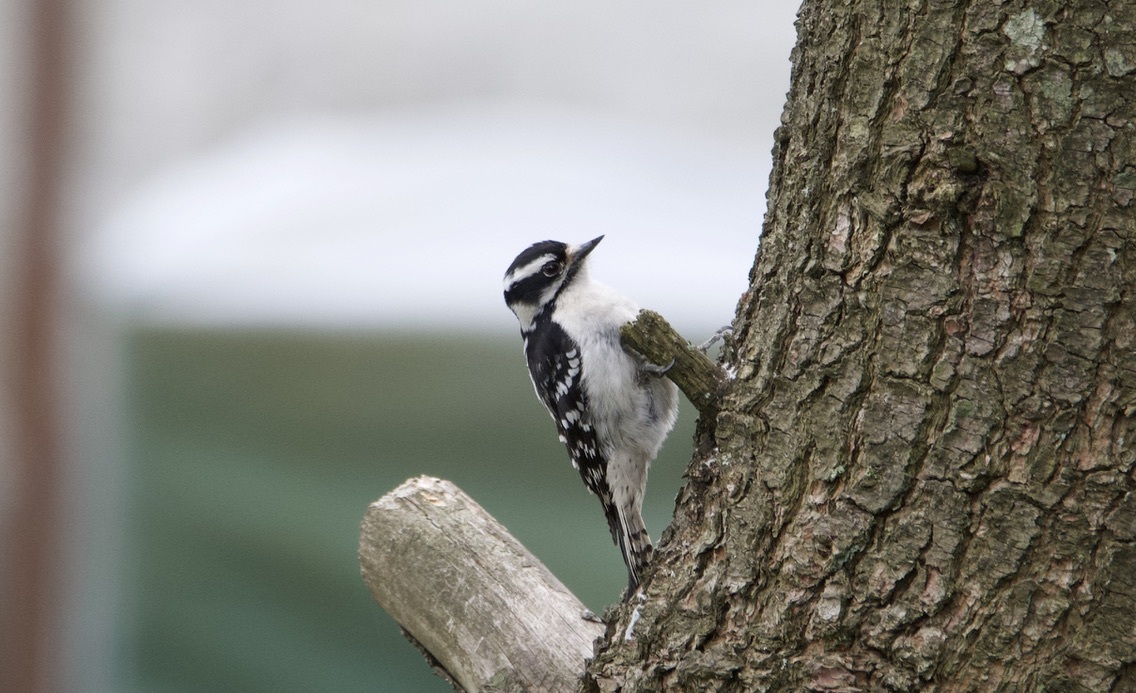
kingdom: Animalia
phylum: Chordata
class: Aves
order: Piciformes
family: Picidae
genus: Dryobates
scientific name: Dryobates pubescens
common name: Downy woodpecker
